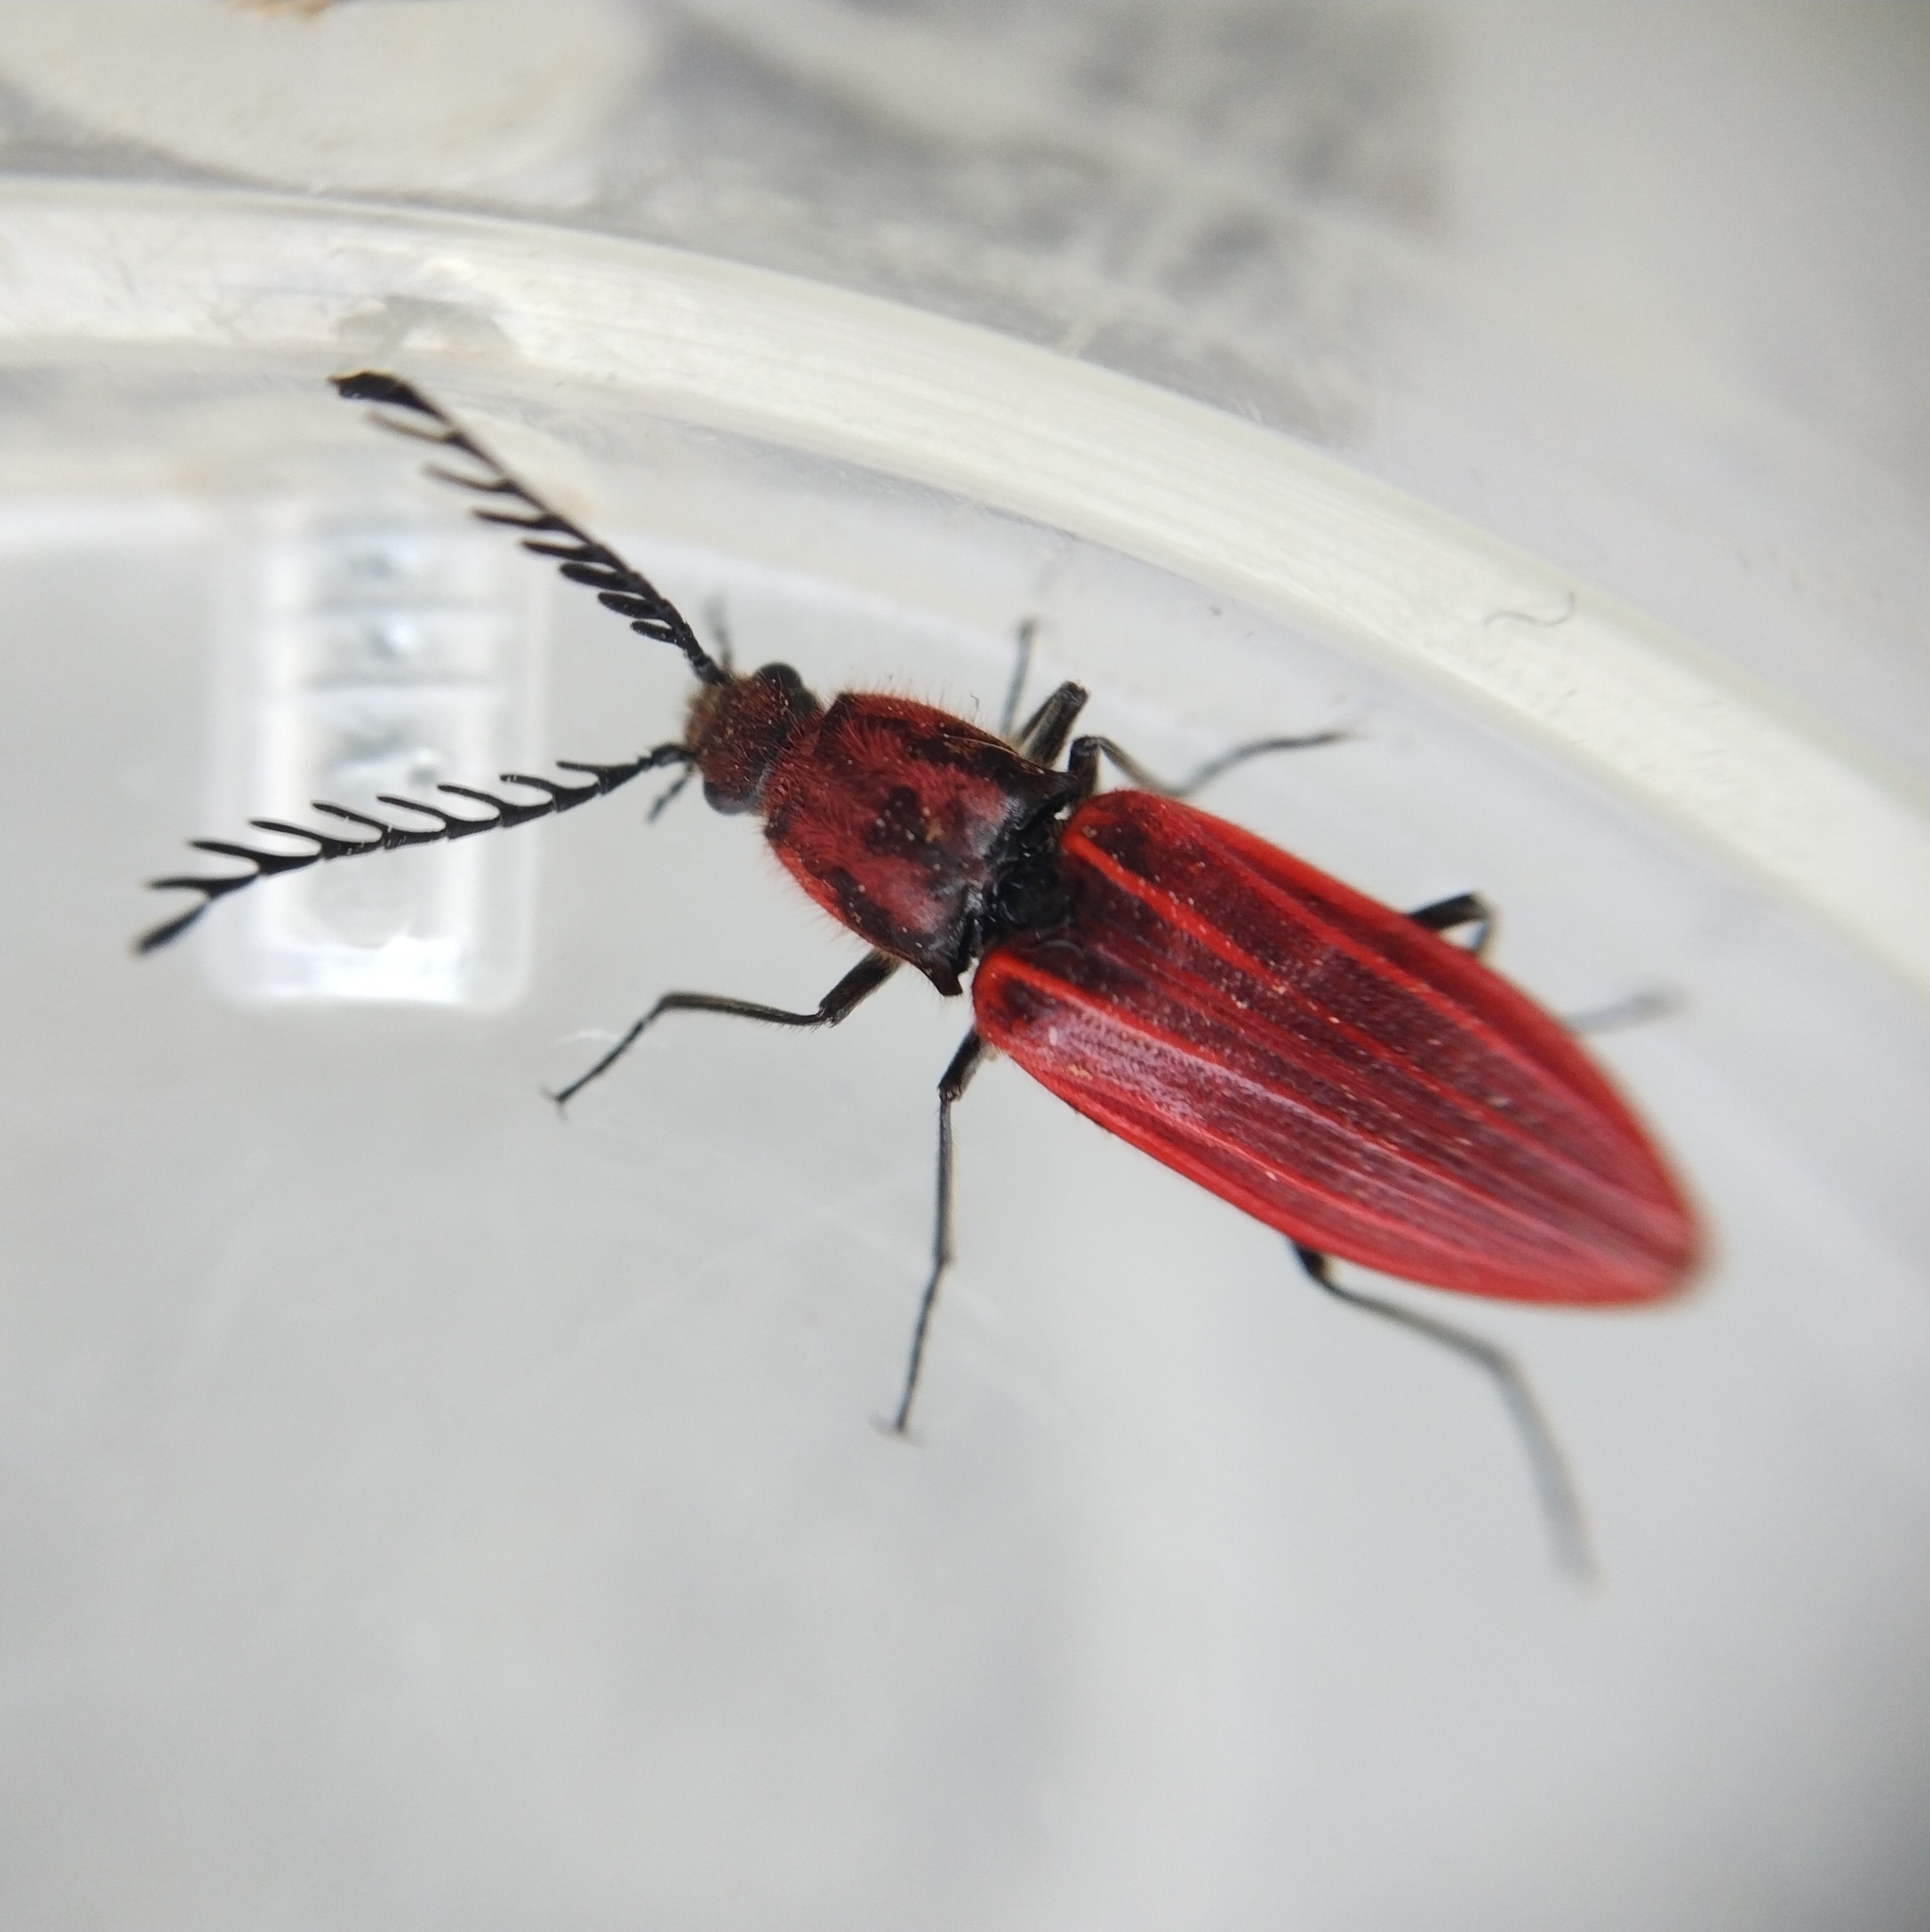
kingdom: Animalia
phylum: Arthropoda
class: Insecta
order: Coleoptera
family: Elateridae
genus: Anostirus
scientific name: Anostirus purpureus
